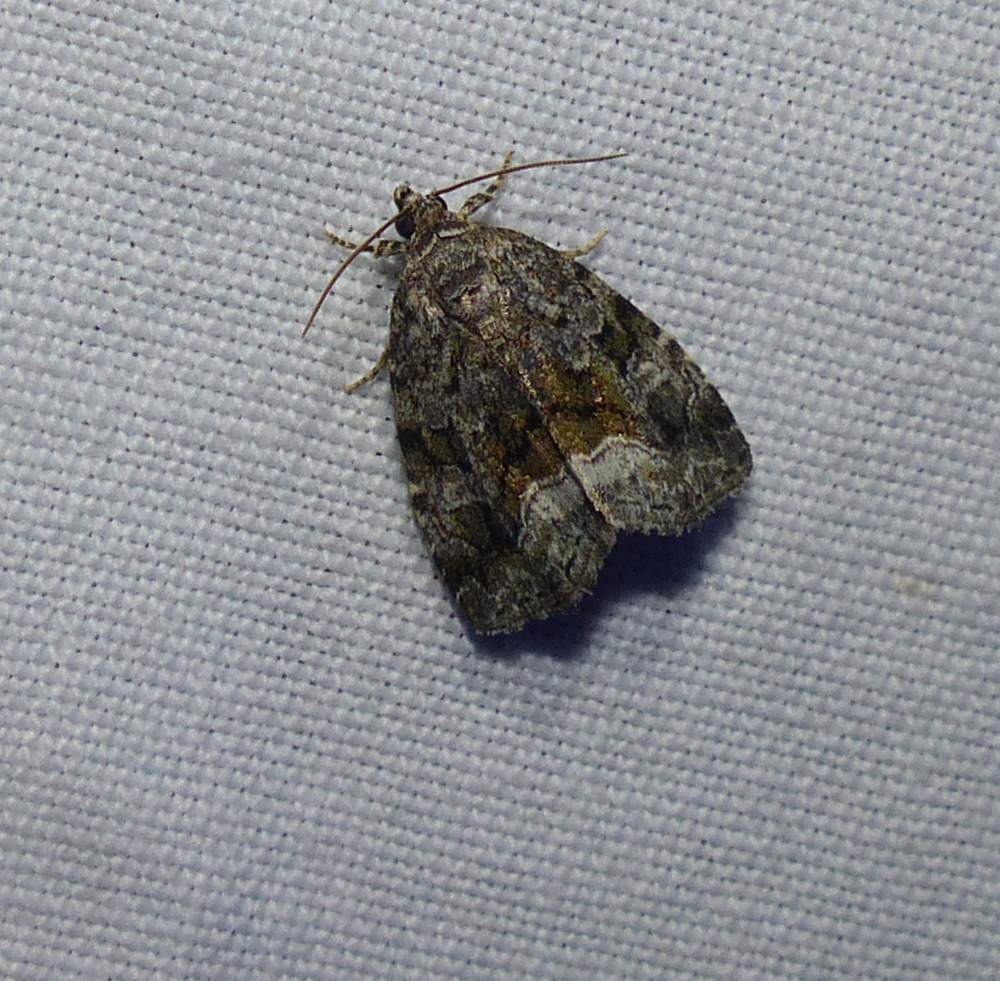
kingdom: Animalia
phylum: Arthropoda
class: Insecta
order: Lepidoptera
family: Noctuidae
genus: Protodeltote
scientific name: Protodeltote muscosula
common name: Large mossy glyph
